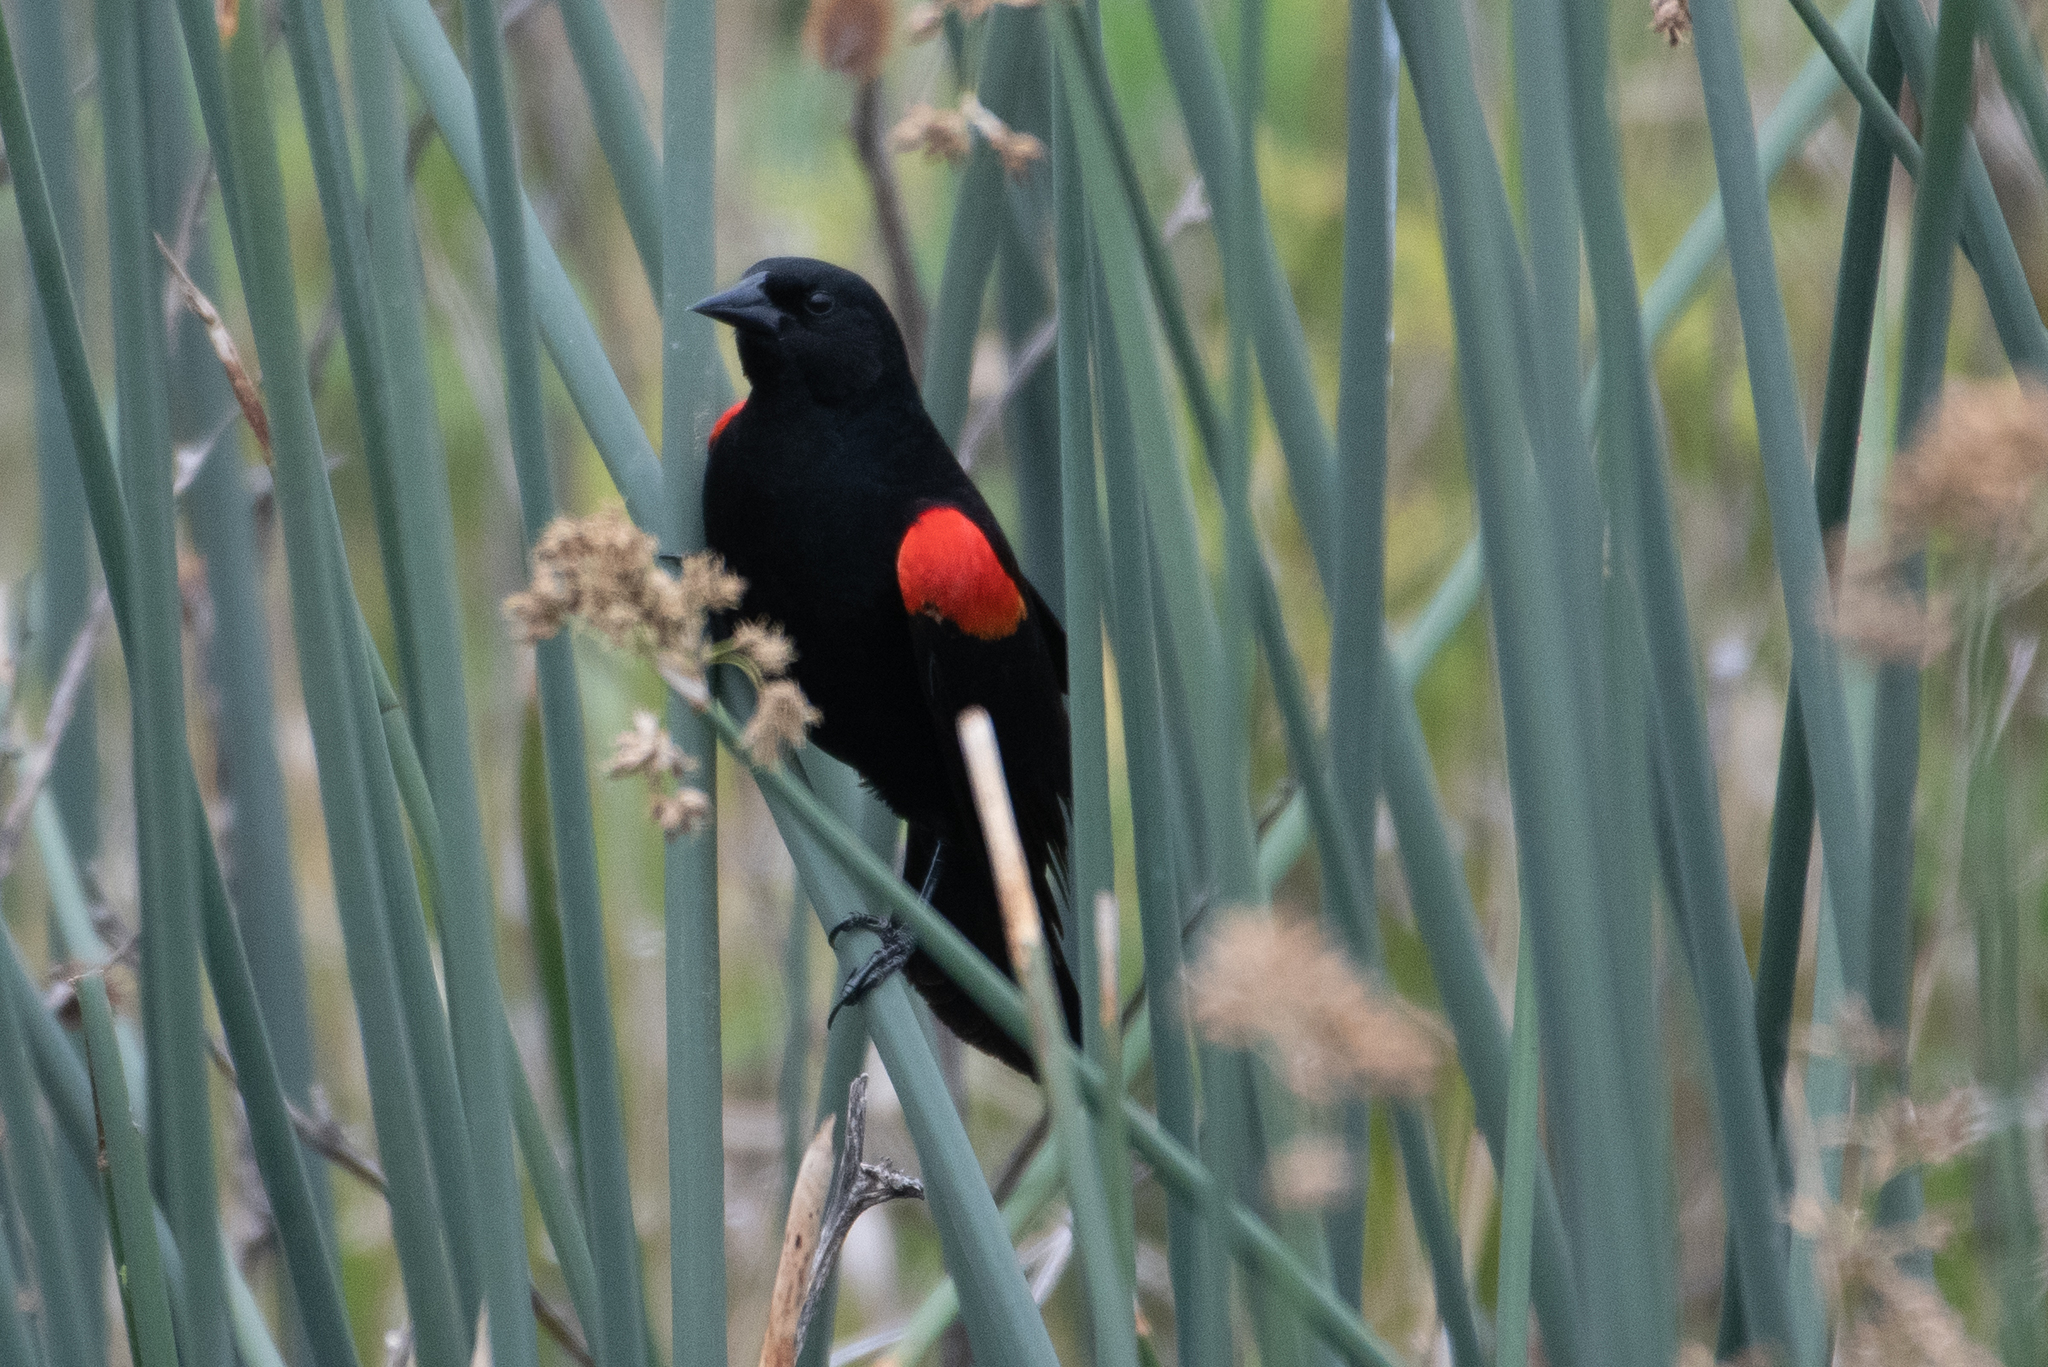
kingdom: Animalia
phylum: Chordata
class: Aves
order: Passeriformes
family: Icteridae
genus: Agelaius
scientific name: Agelaius phoeniceus
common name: Red-winged blackbird
